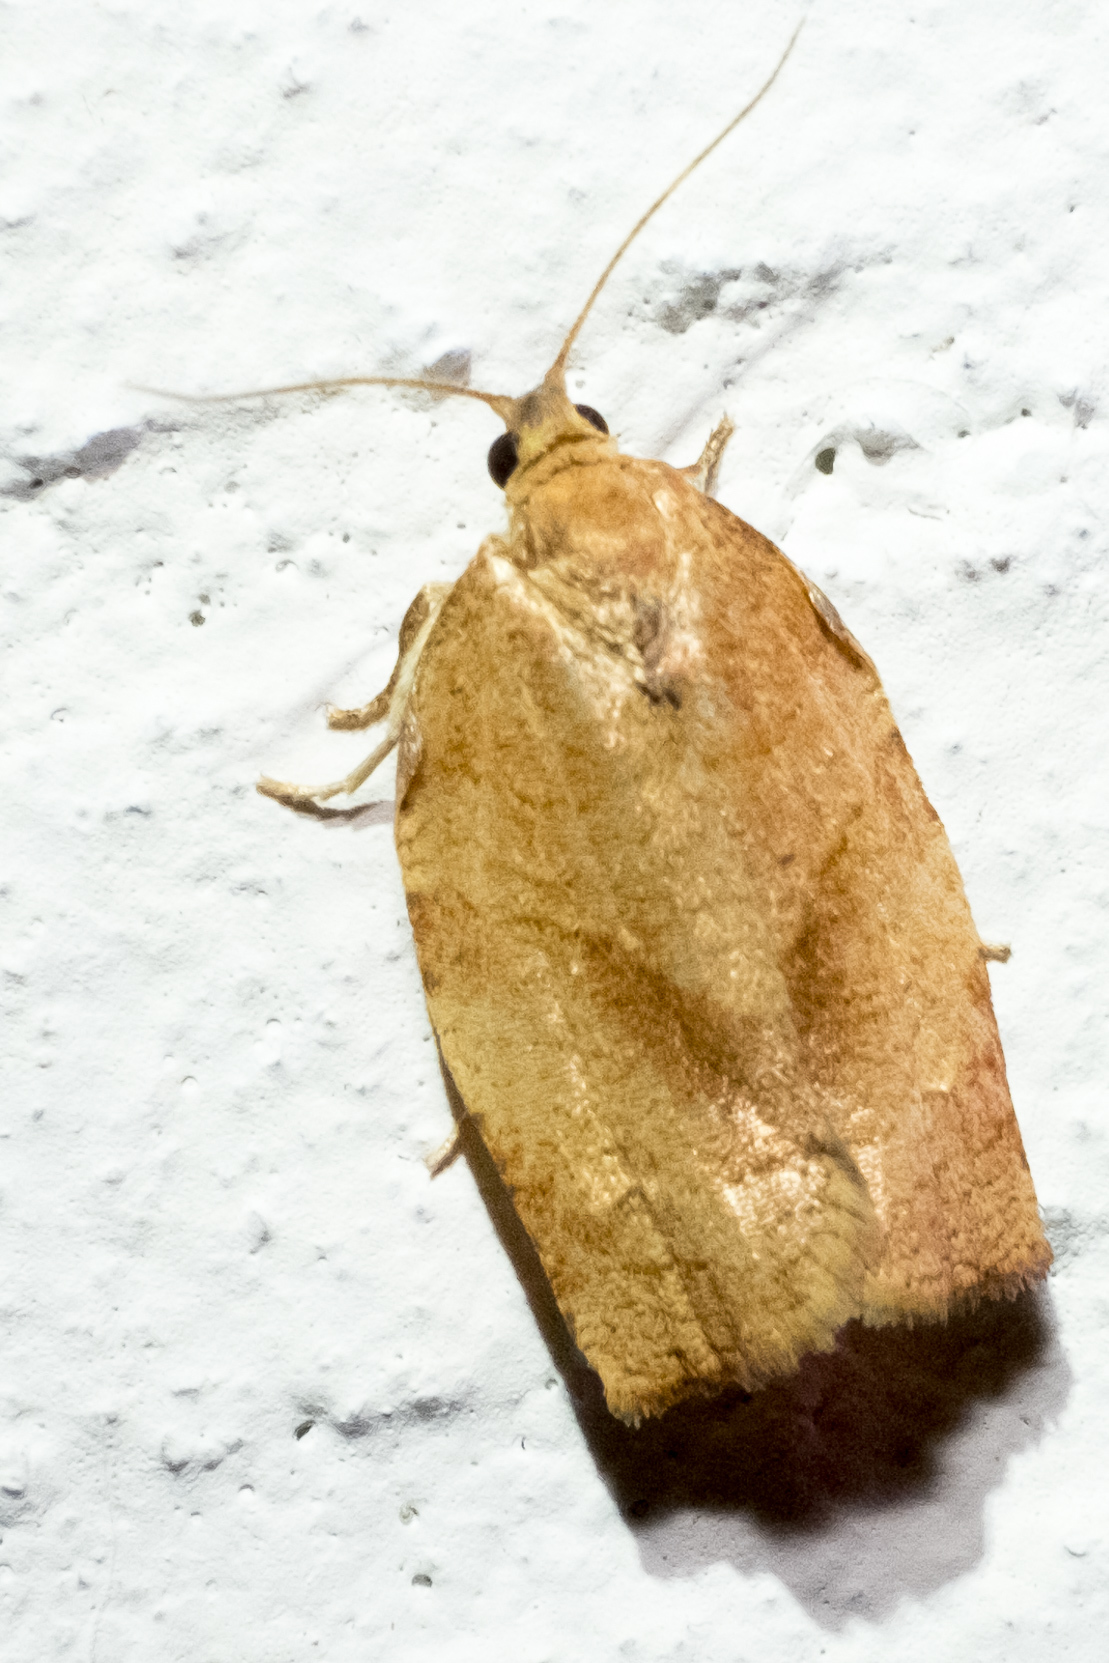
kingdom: Animalia
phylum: Arthropoda
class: Insecta
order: Lepidoptera
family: Tortricidae
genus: Choristoneura
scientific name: Choristoneura rosaceana
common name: Oblique-banded leafroller moth
